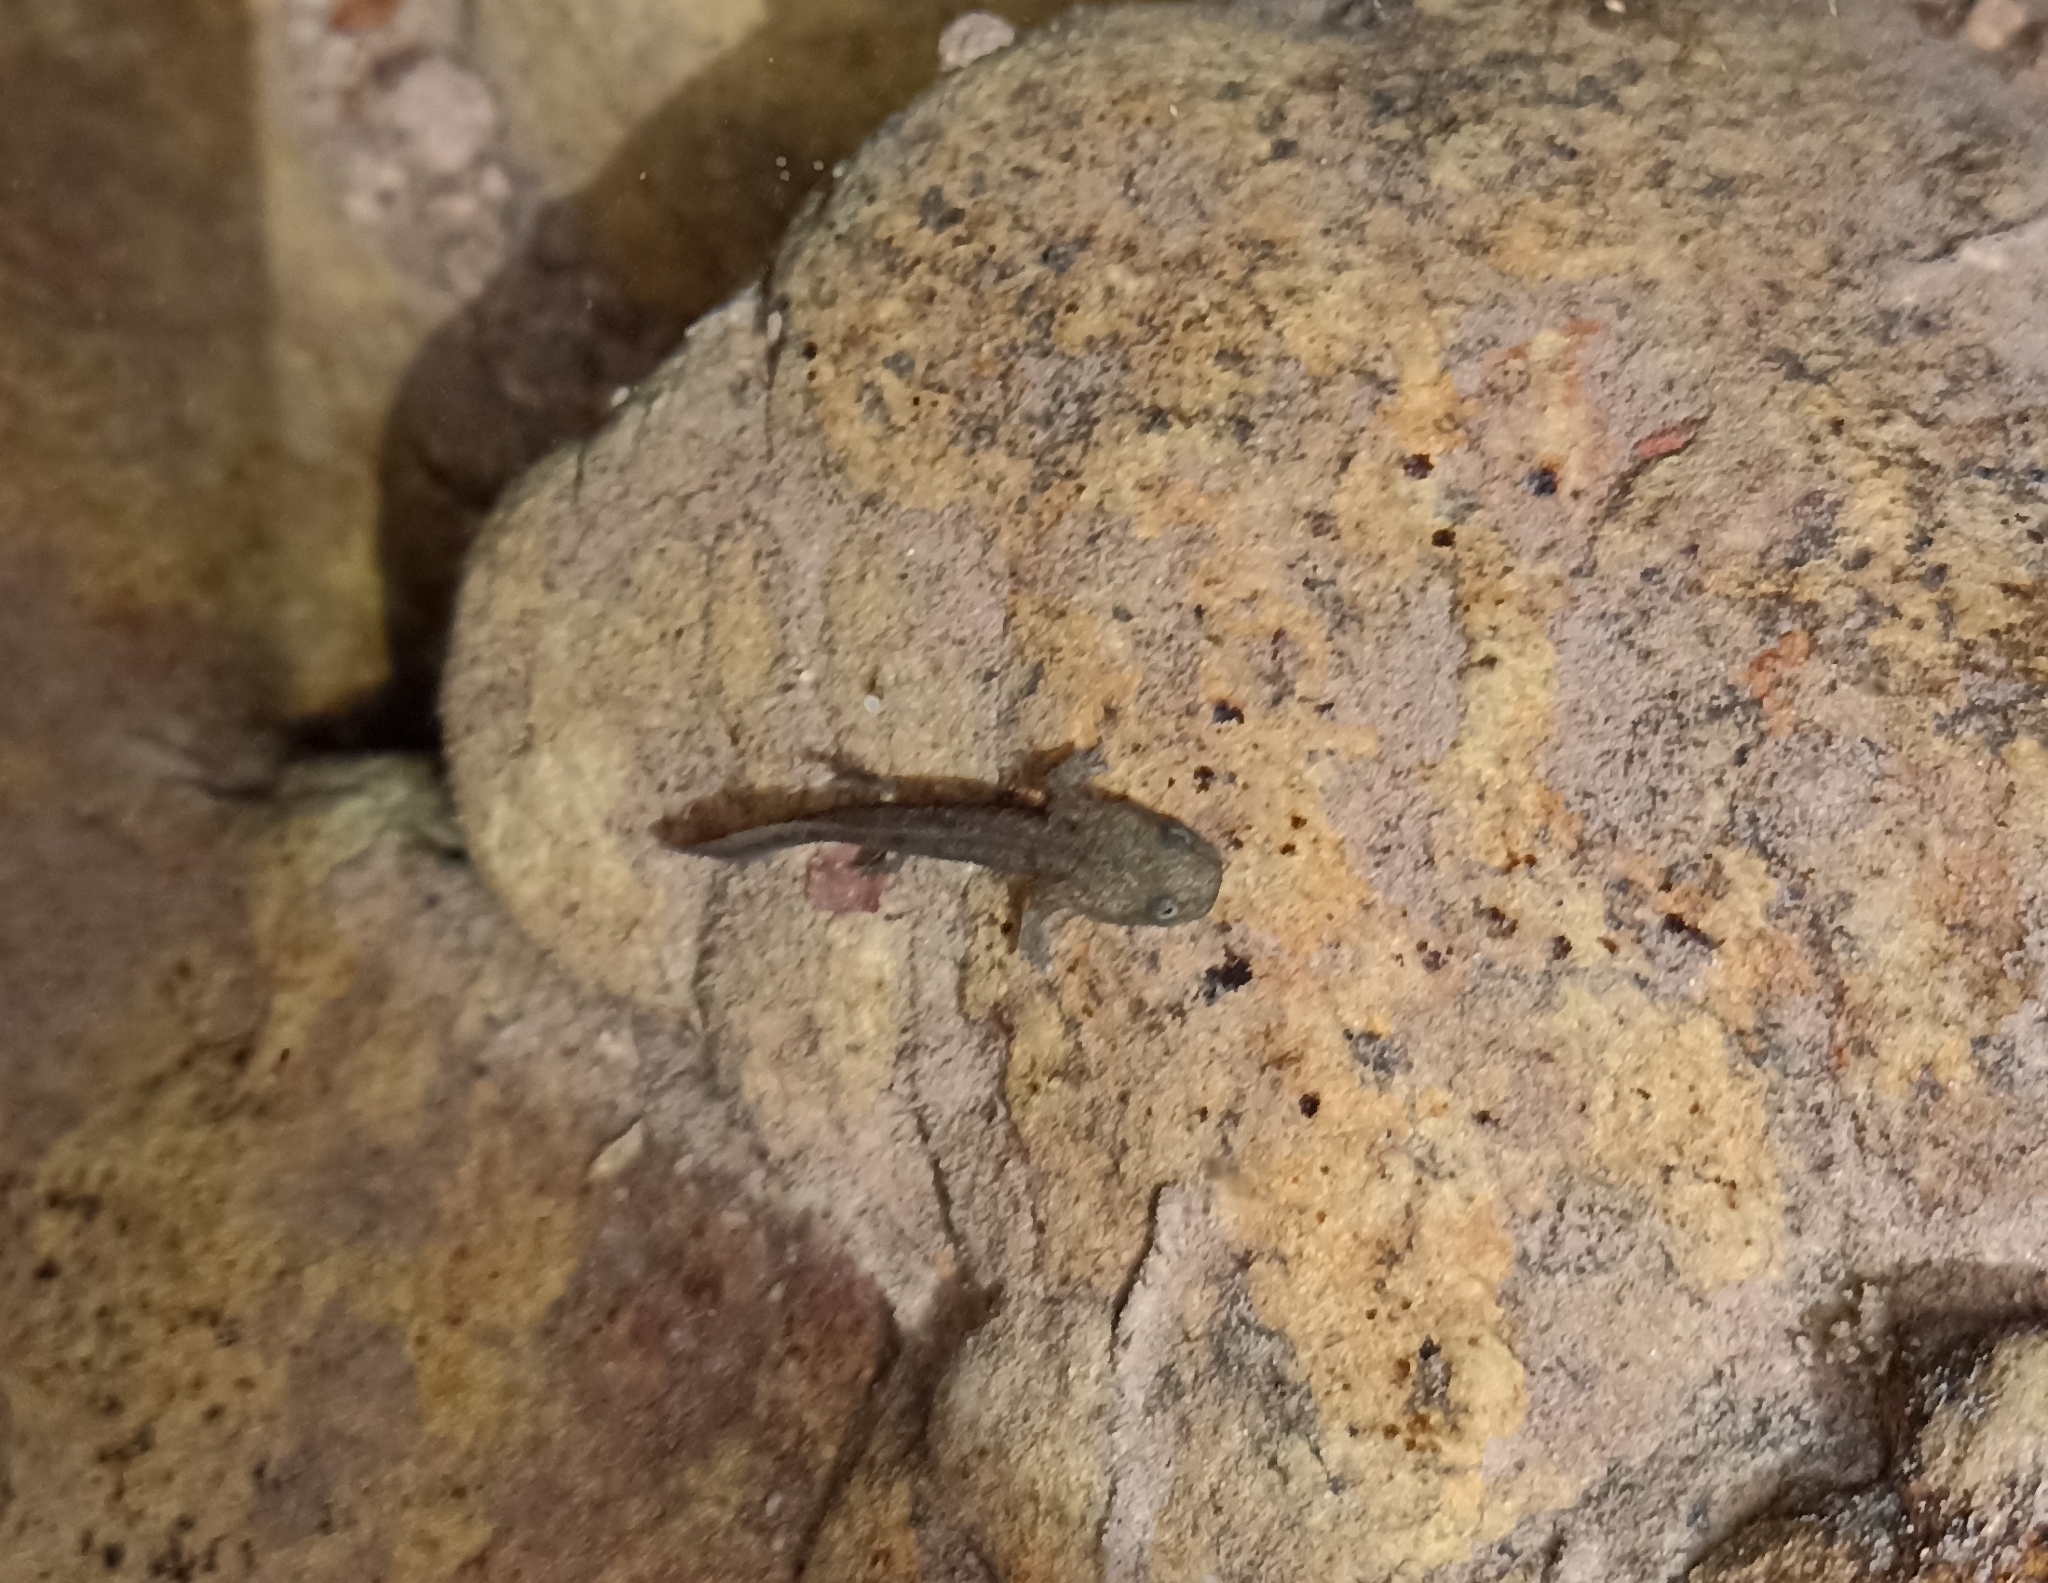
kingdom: Animalia
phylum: Chordata
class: Amphibia
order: Caudata
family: Salamandridae
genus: Salamandra
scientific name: Salamandra salamandra
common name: Fire salamander
